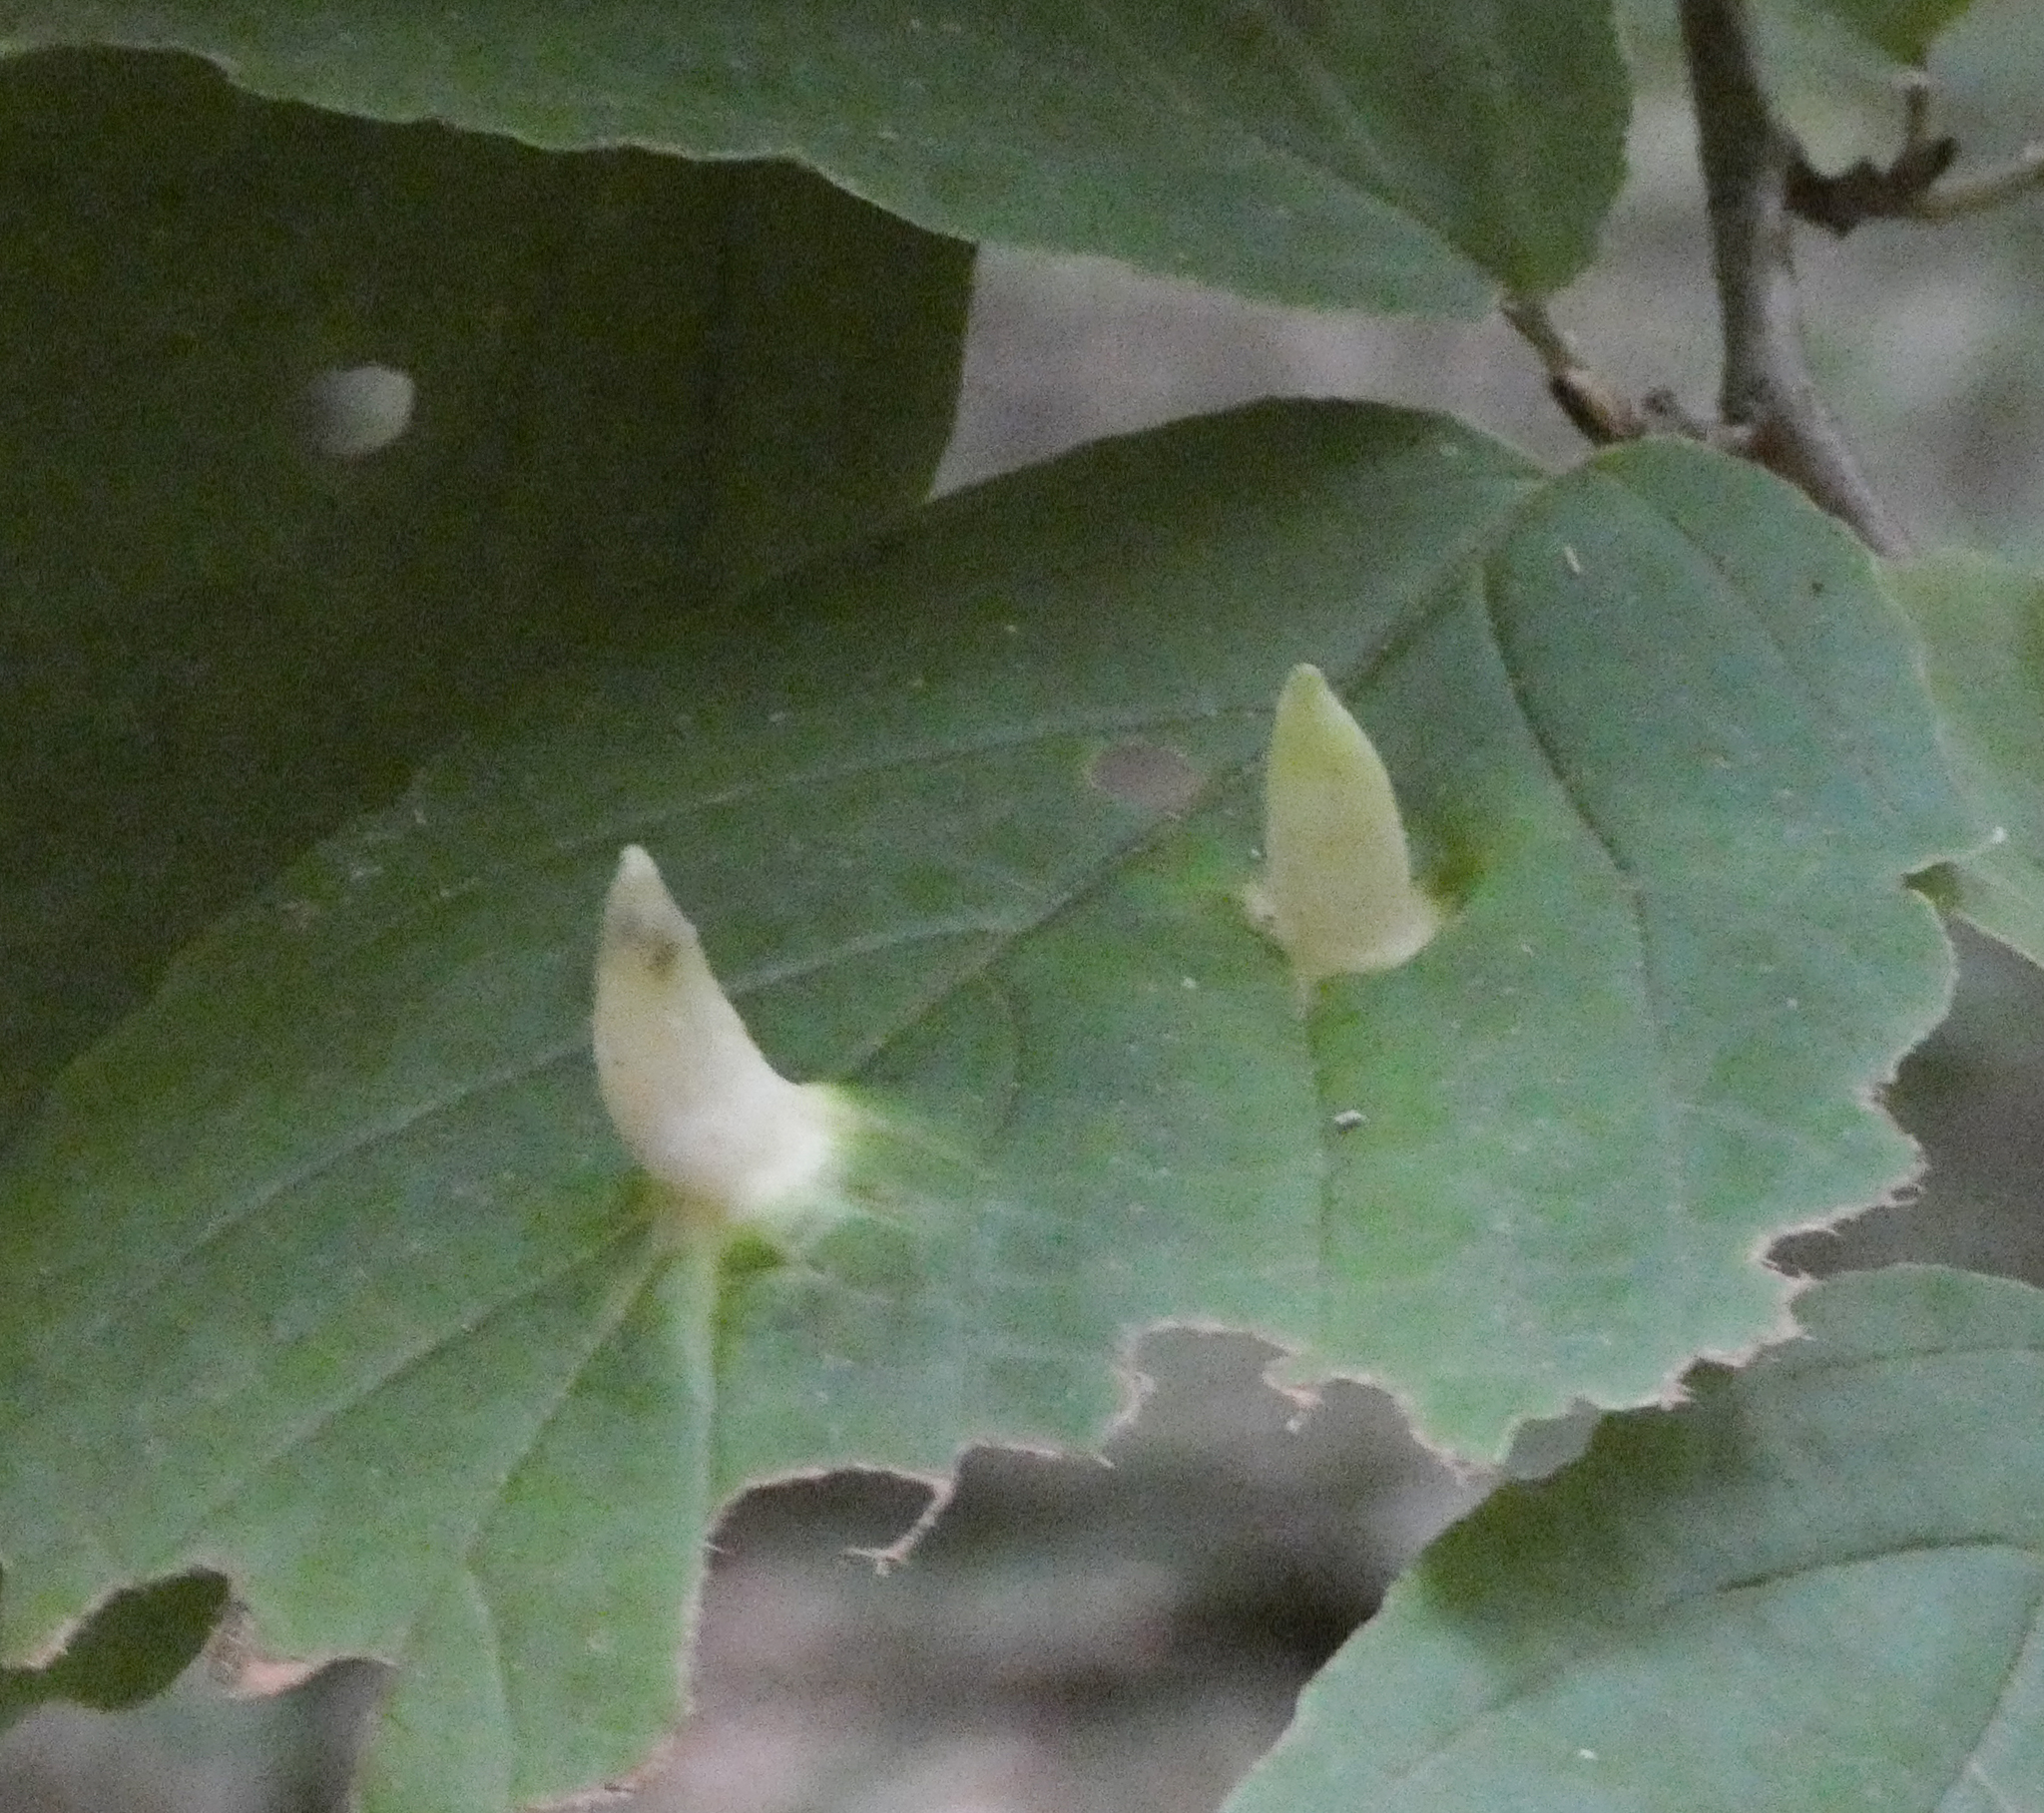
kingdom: Animalia
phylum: Arthropoda
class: Insecta
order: Hemiptera
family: Aphididae
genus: Hormaphis
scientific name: Hormaphis hamamelidis
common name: Witch-hazel cone gall aphid
